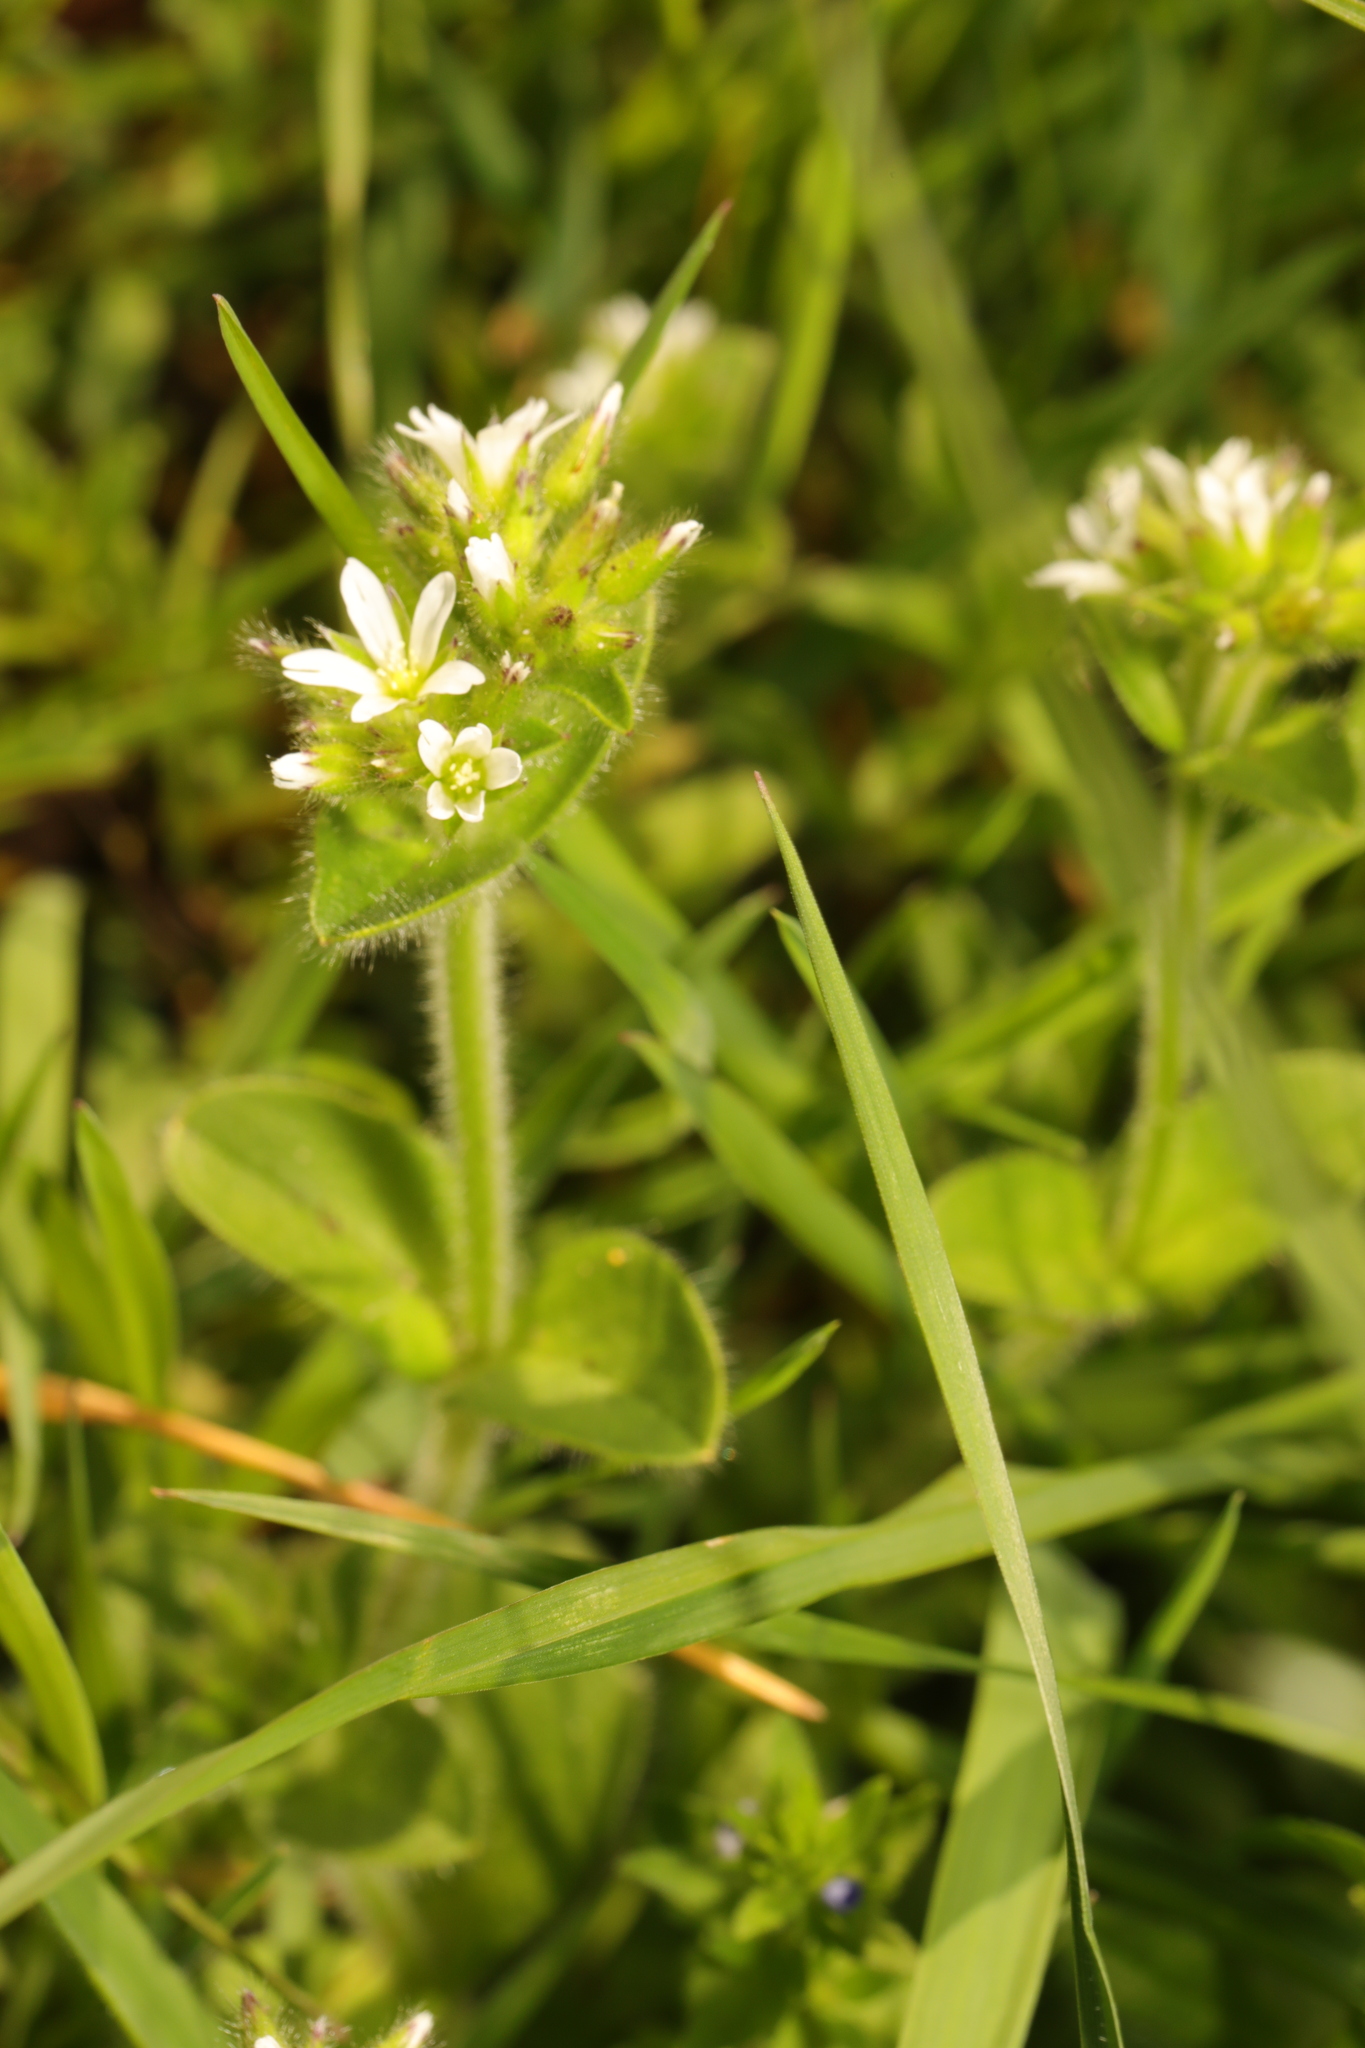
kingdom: Plantae
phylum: Tracheophyta
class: Magnoliopsida
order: Caryophyllales
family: Caryophyllaceae
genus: Cerastium
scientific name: Cerastium glomeratum
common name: Sticky chickweed
